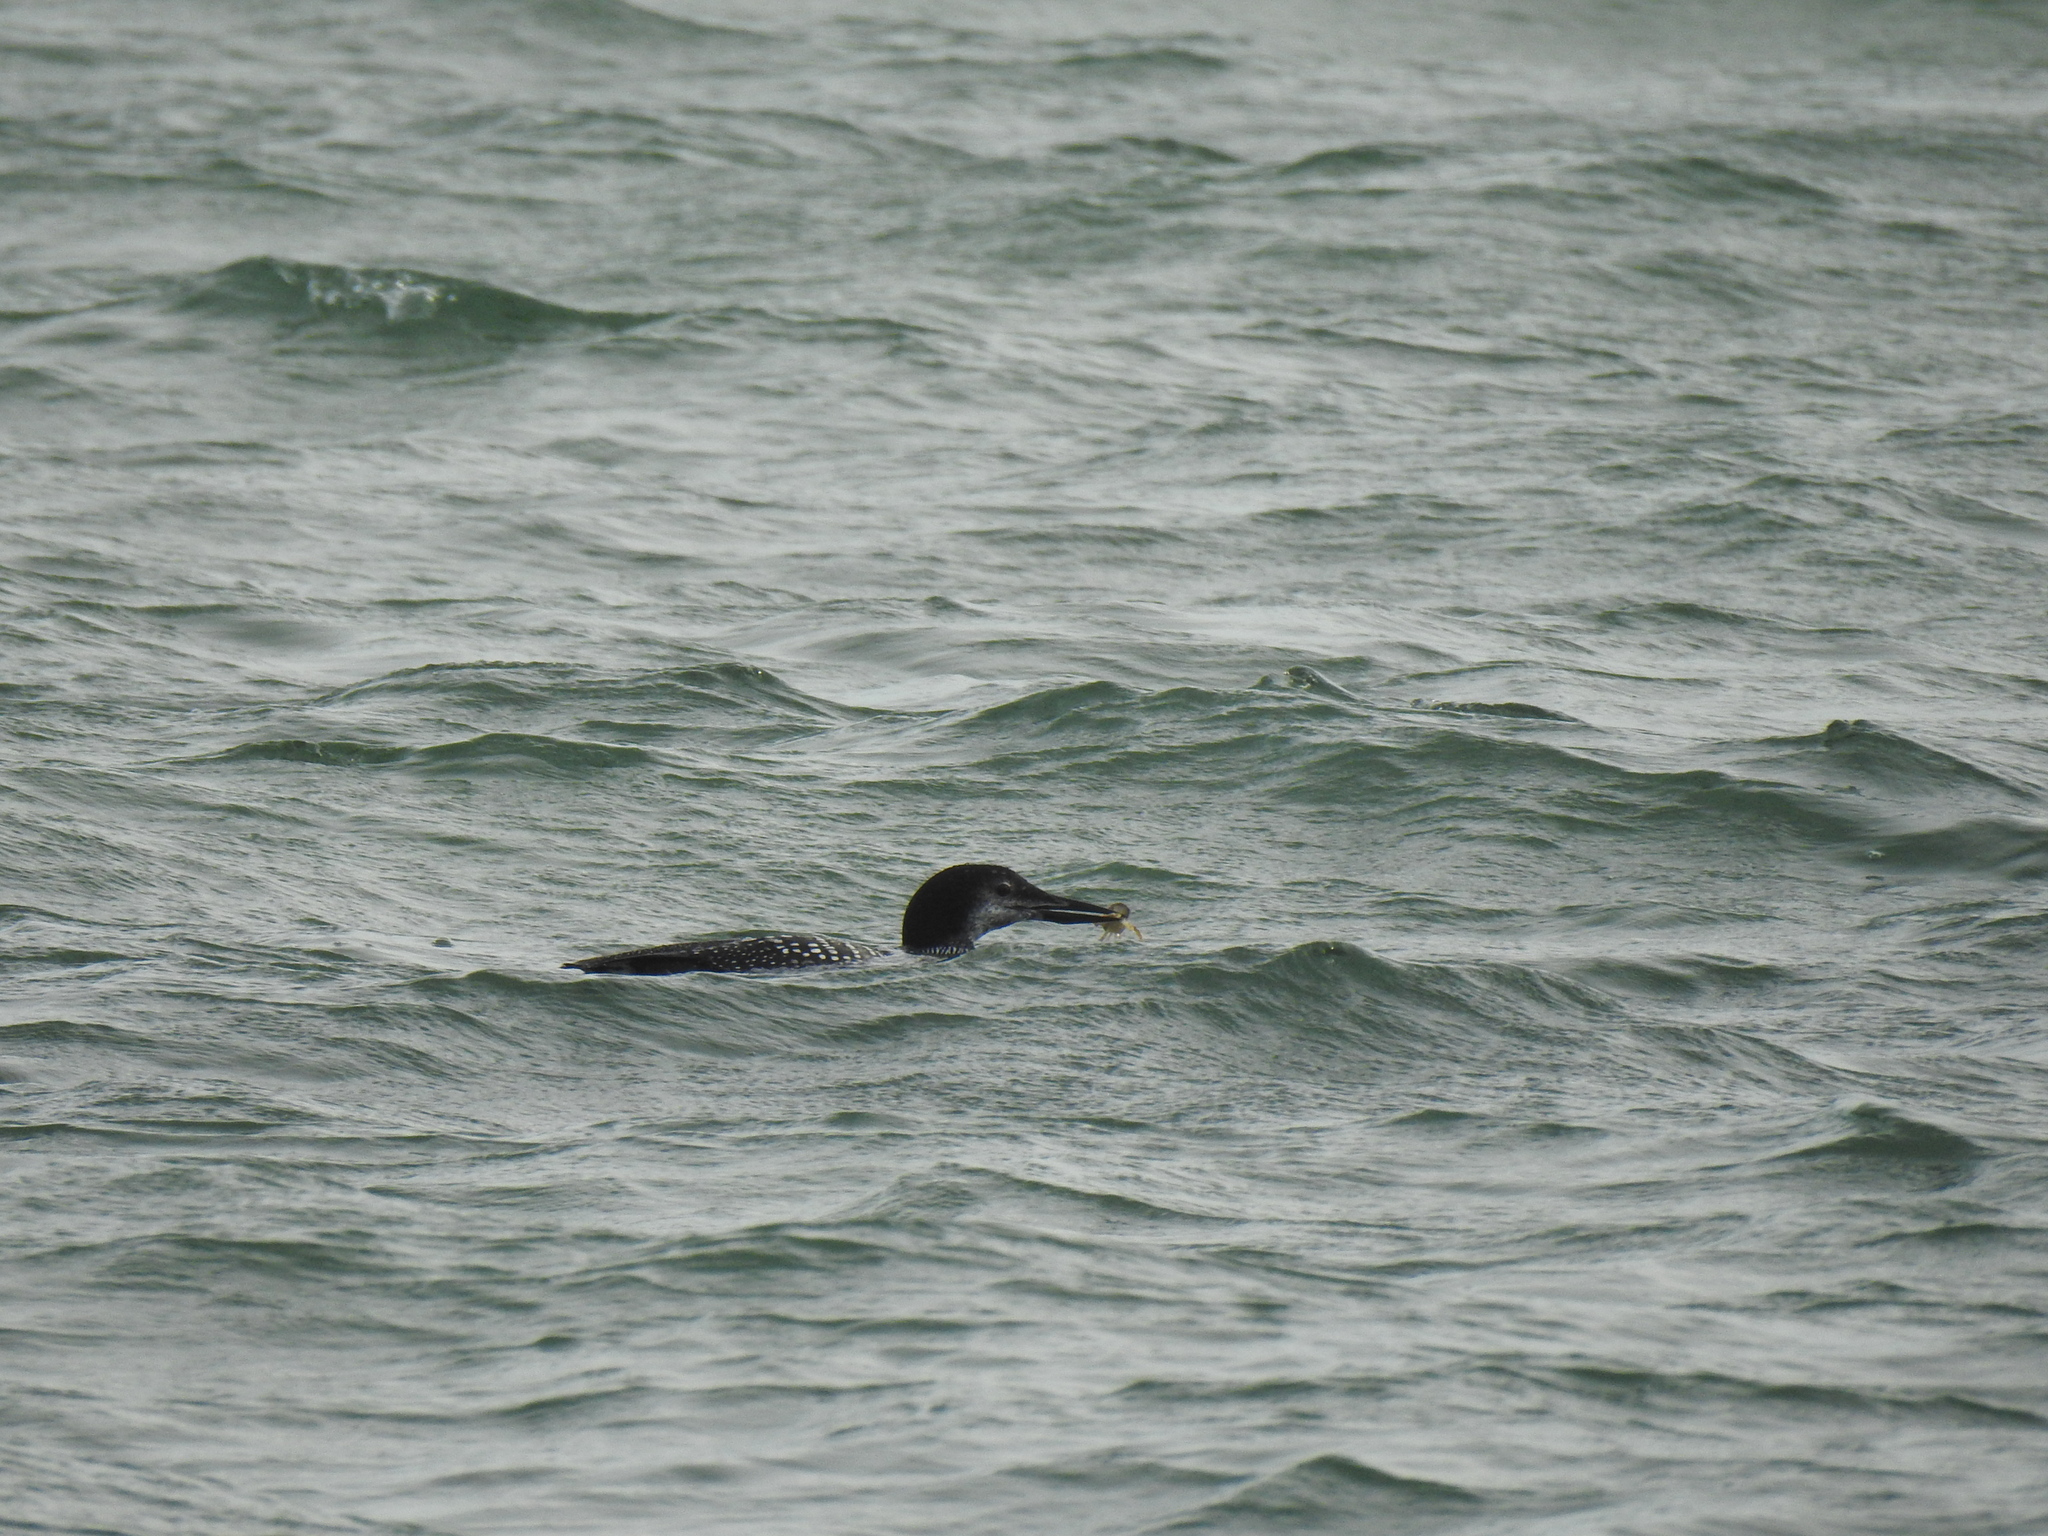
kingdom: Animalia
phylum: Chordata
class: Aves
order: Gaviiformes
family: Gaviidae
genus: Gavia
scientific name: Gavia immer
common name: Common loon
